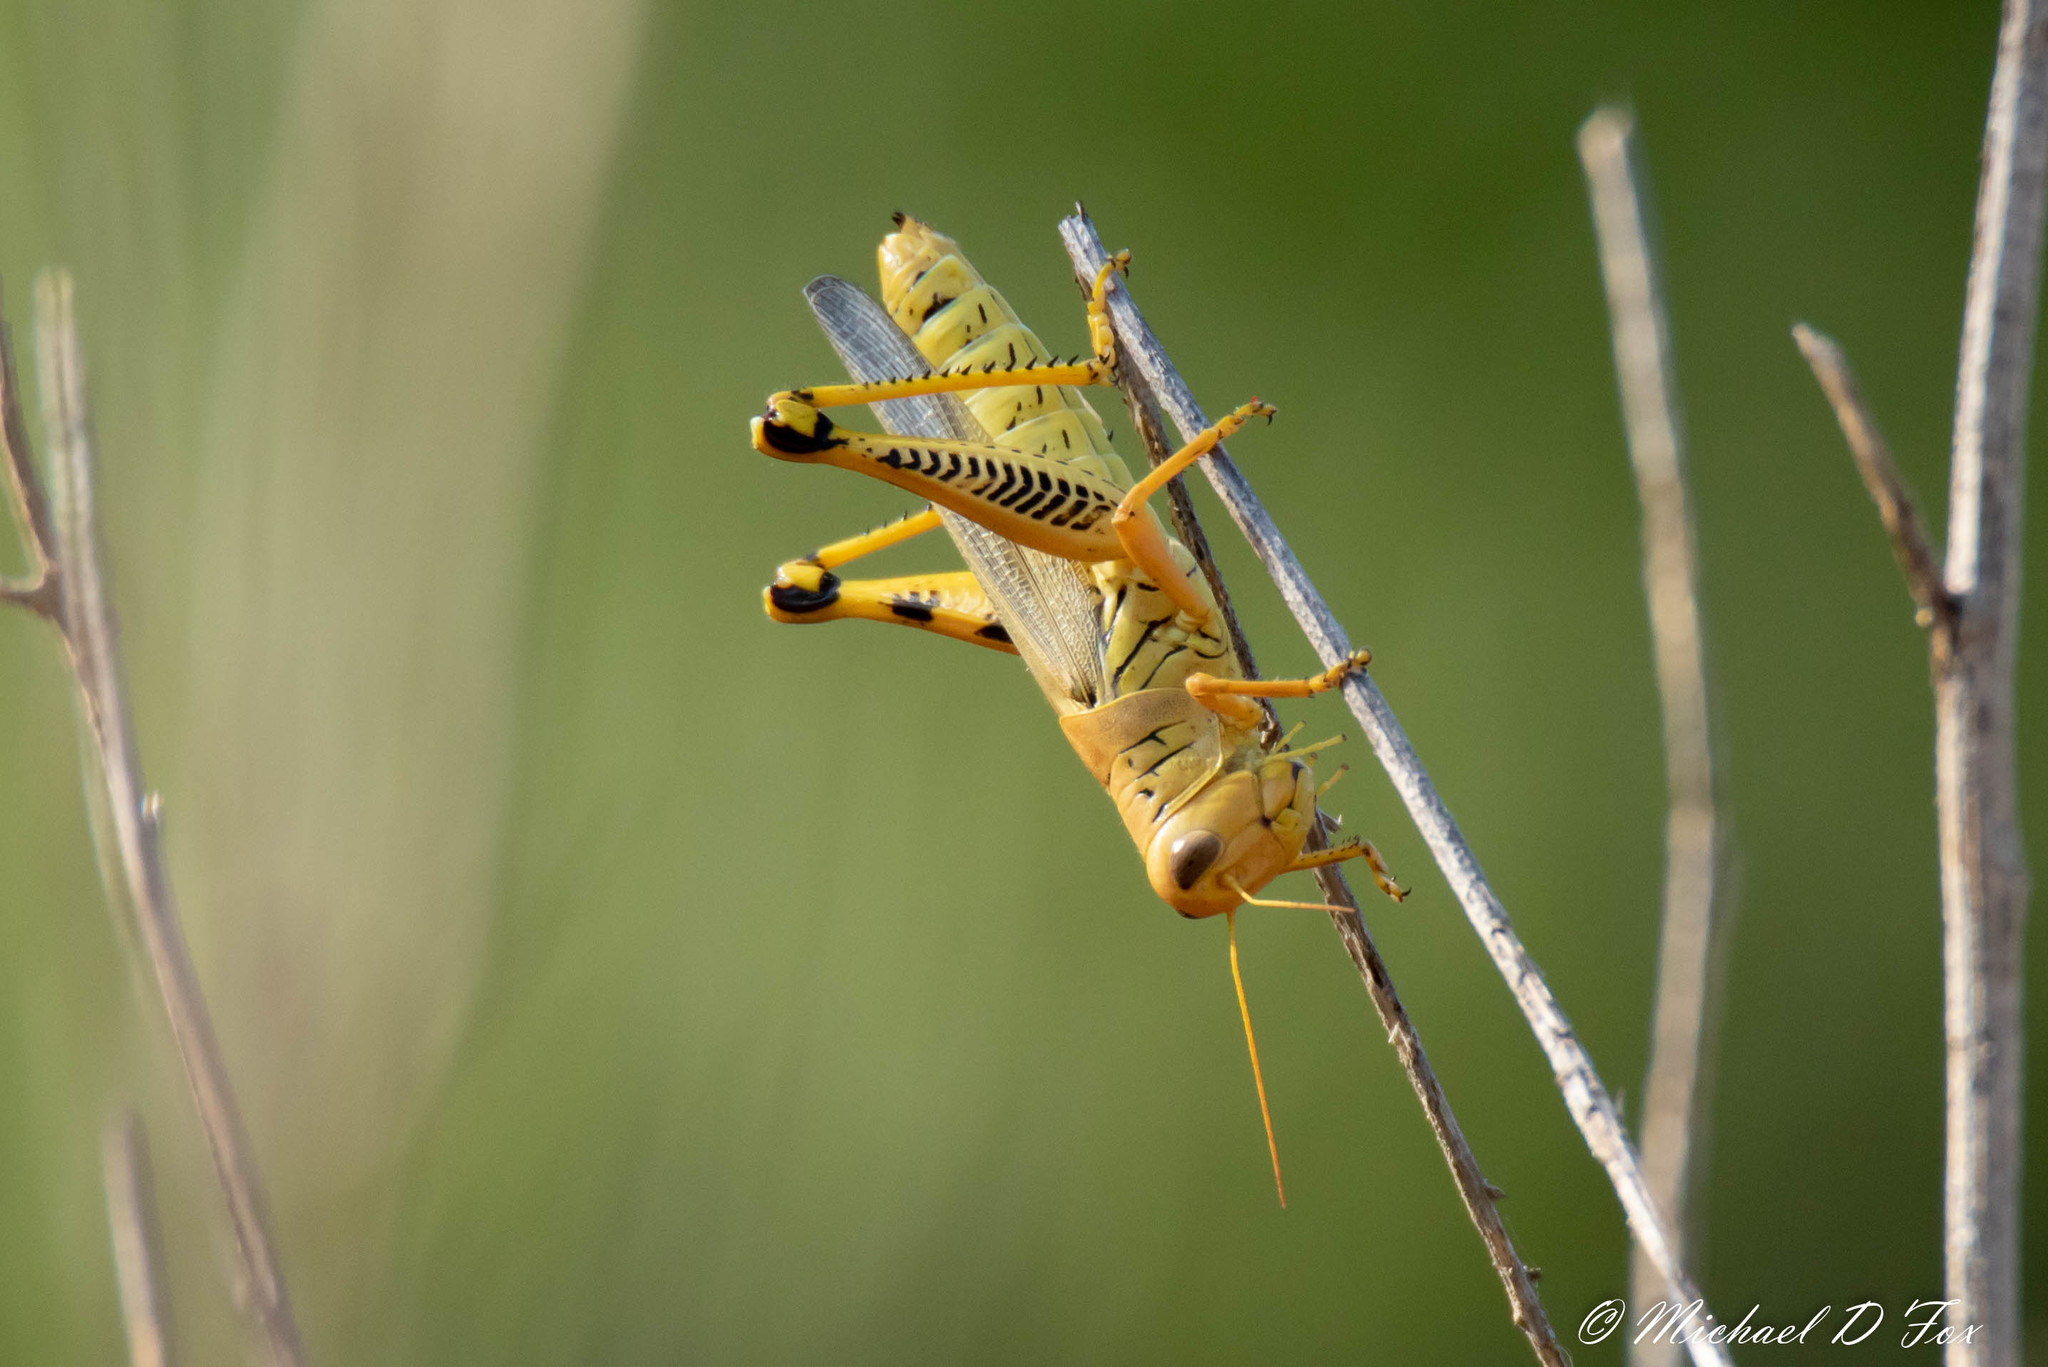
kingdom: Animalia
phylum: Arthropoda
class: Insecta
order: Orthoptera
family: Acrididae
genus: Melanoplus
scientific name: Melanoplus differentialis
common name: Differential grasshopper
